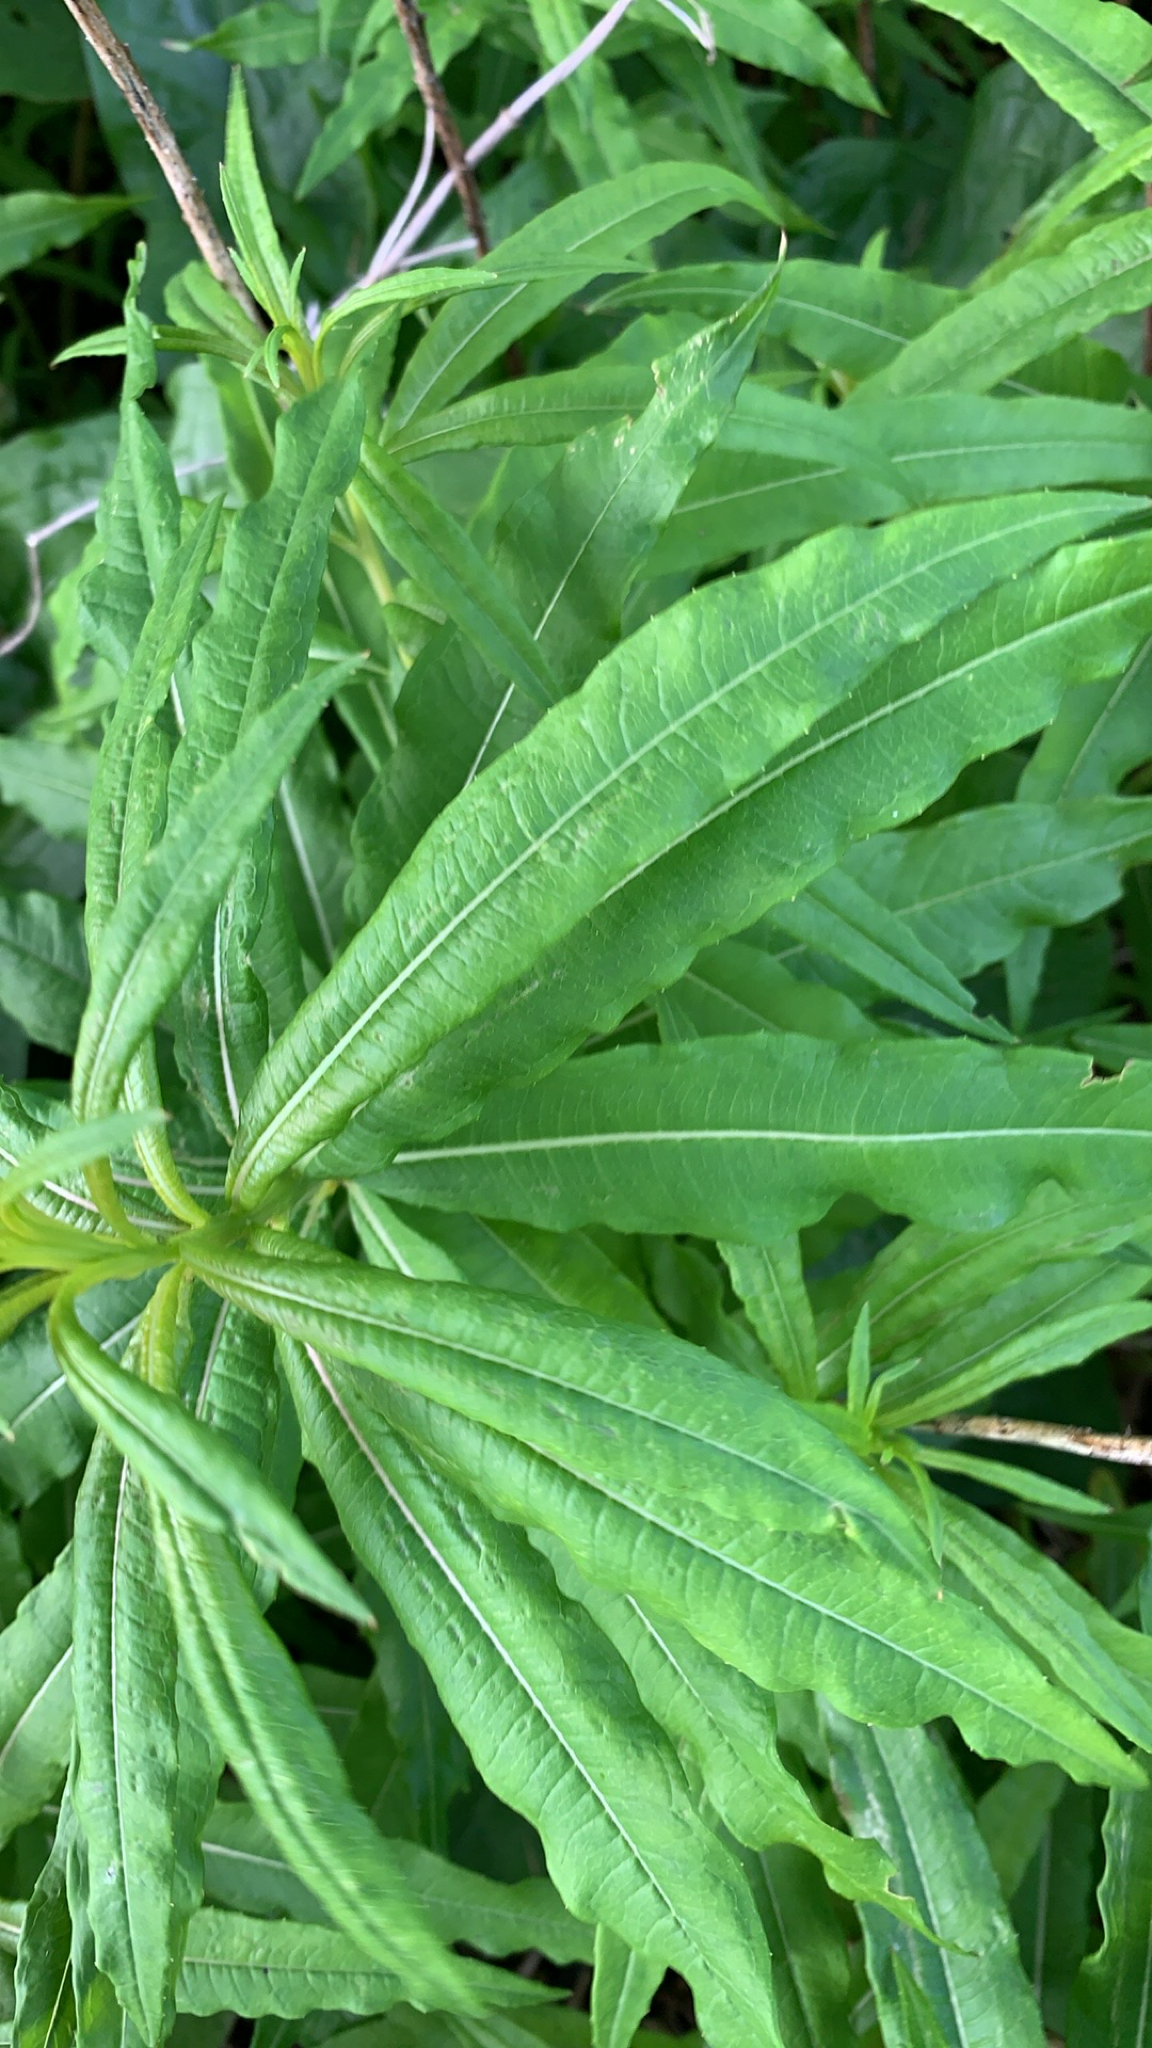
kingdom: Plantae
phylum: Tracheophyta
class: Magnoliopsida
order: Myrtales
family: Onagraceae
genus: Chamaenerion
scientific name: Chamaenerion angustifolium
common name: Fireweed
